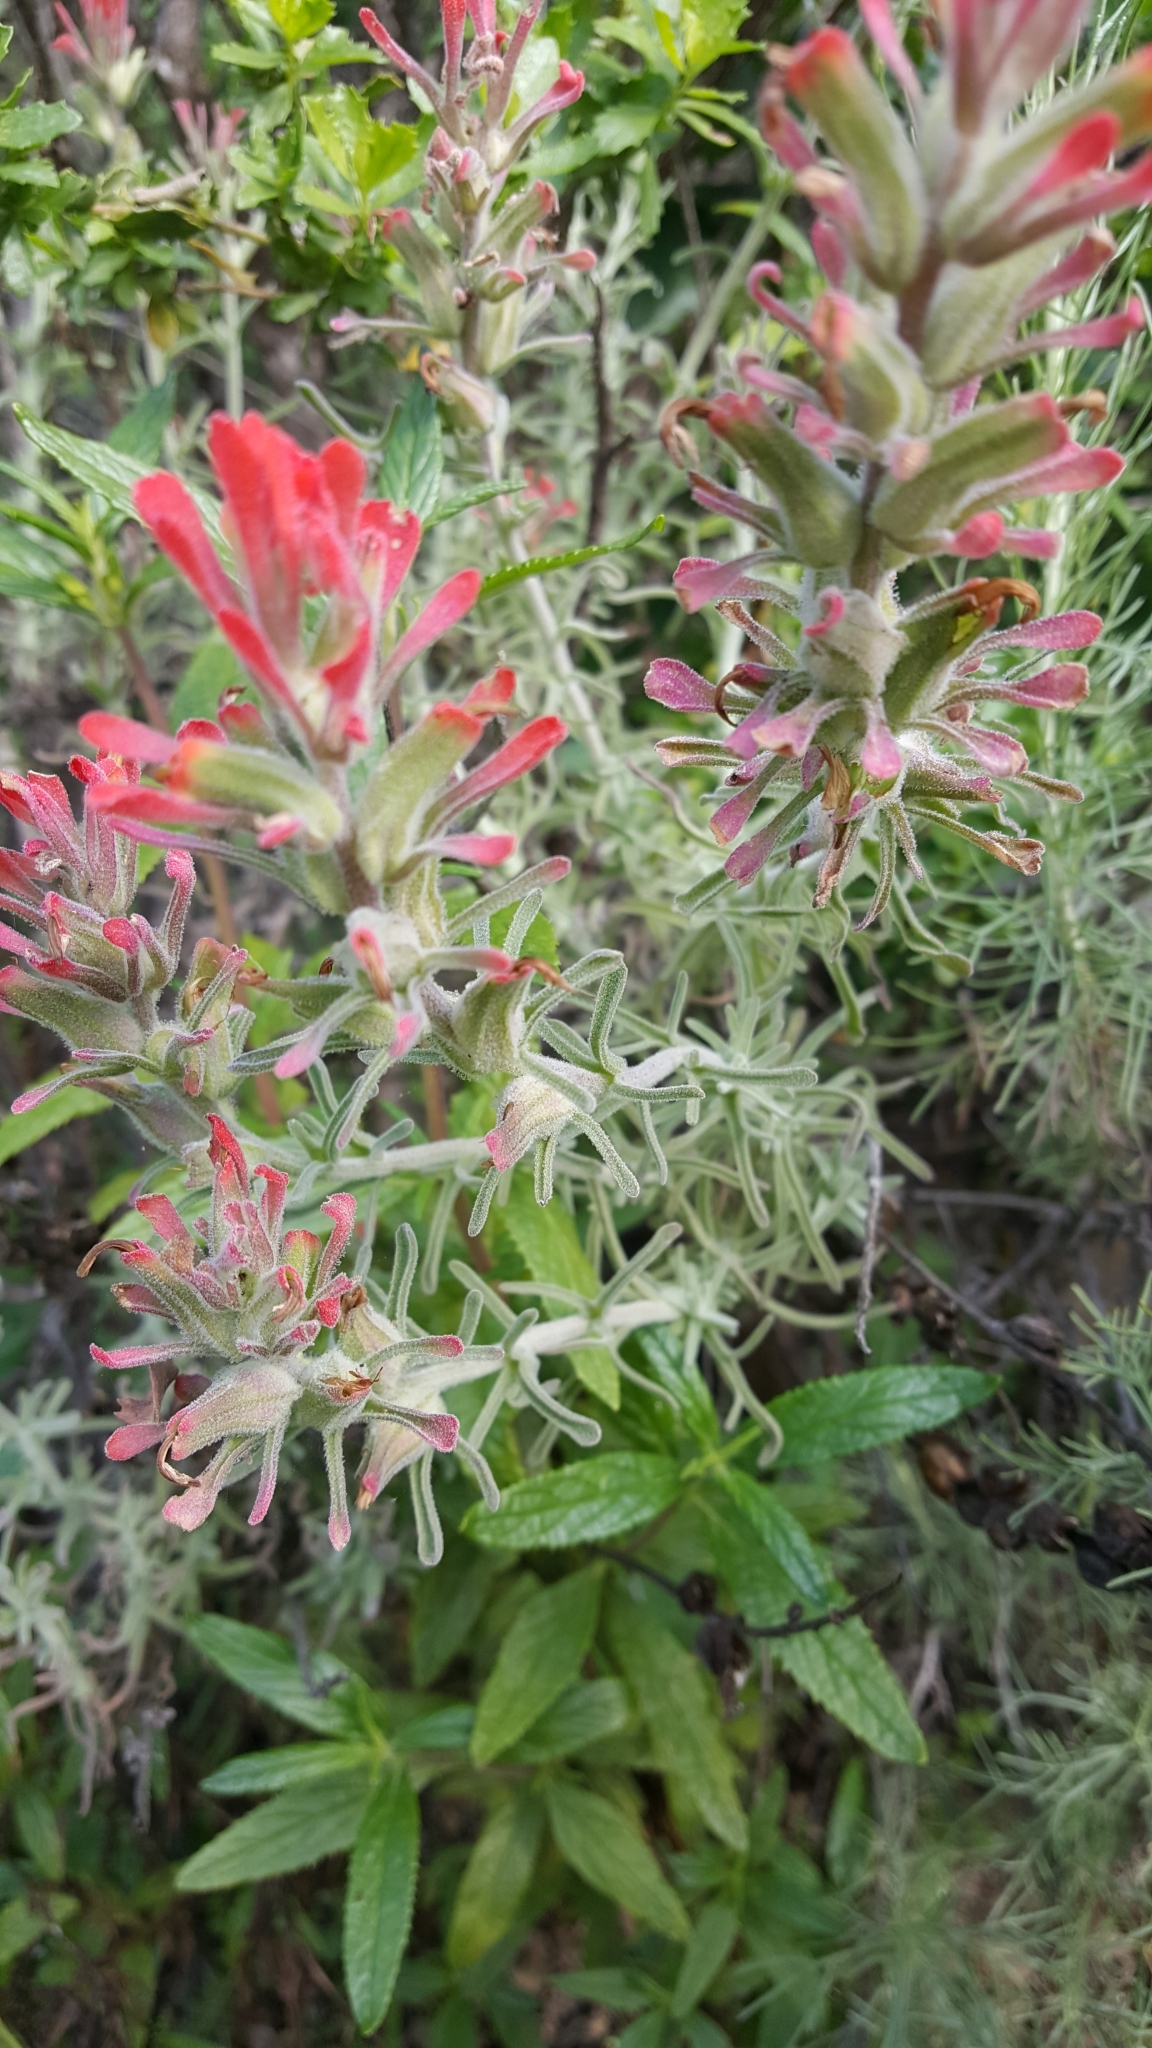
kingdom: Plantae
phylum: Tracheophyta
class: Magnoliopsida
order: Lamiales
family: Orobanchaceae
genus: Castilleja
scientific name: Castilleja foliolosa
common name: Woolly indian paintbrush
